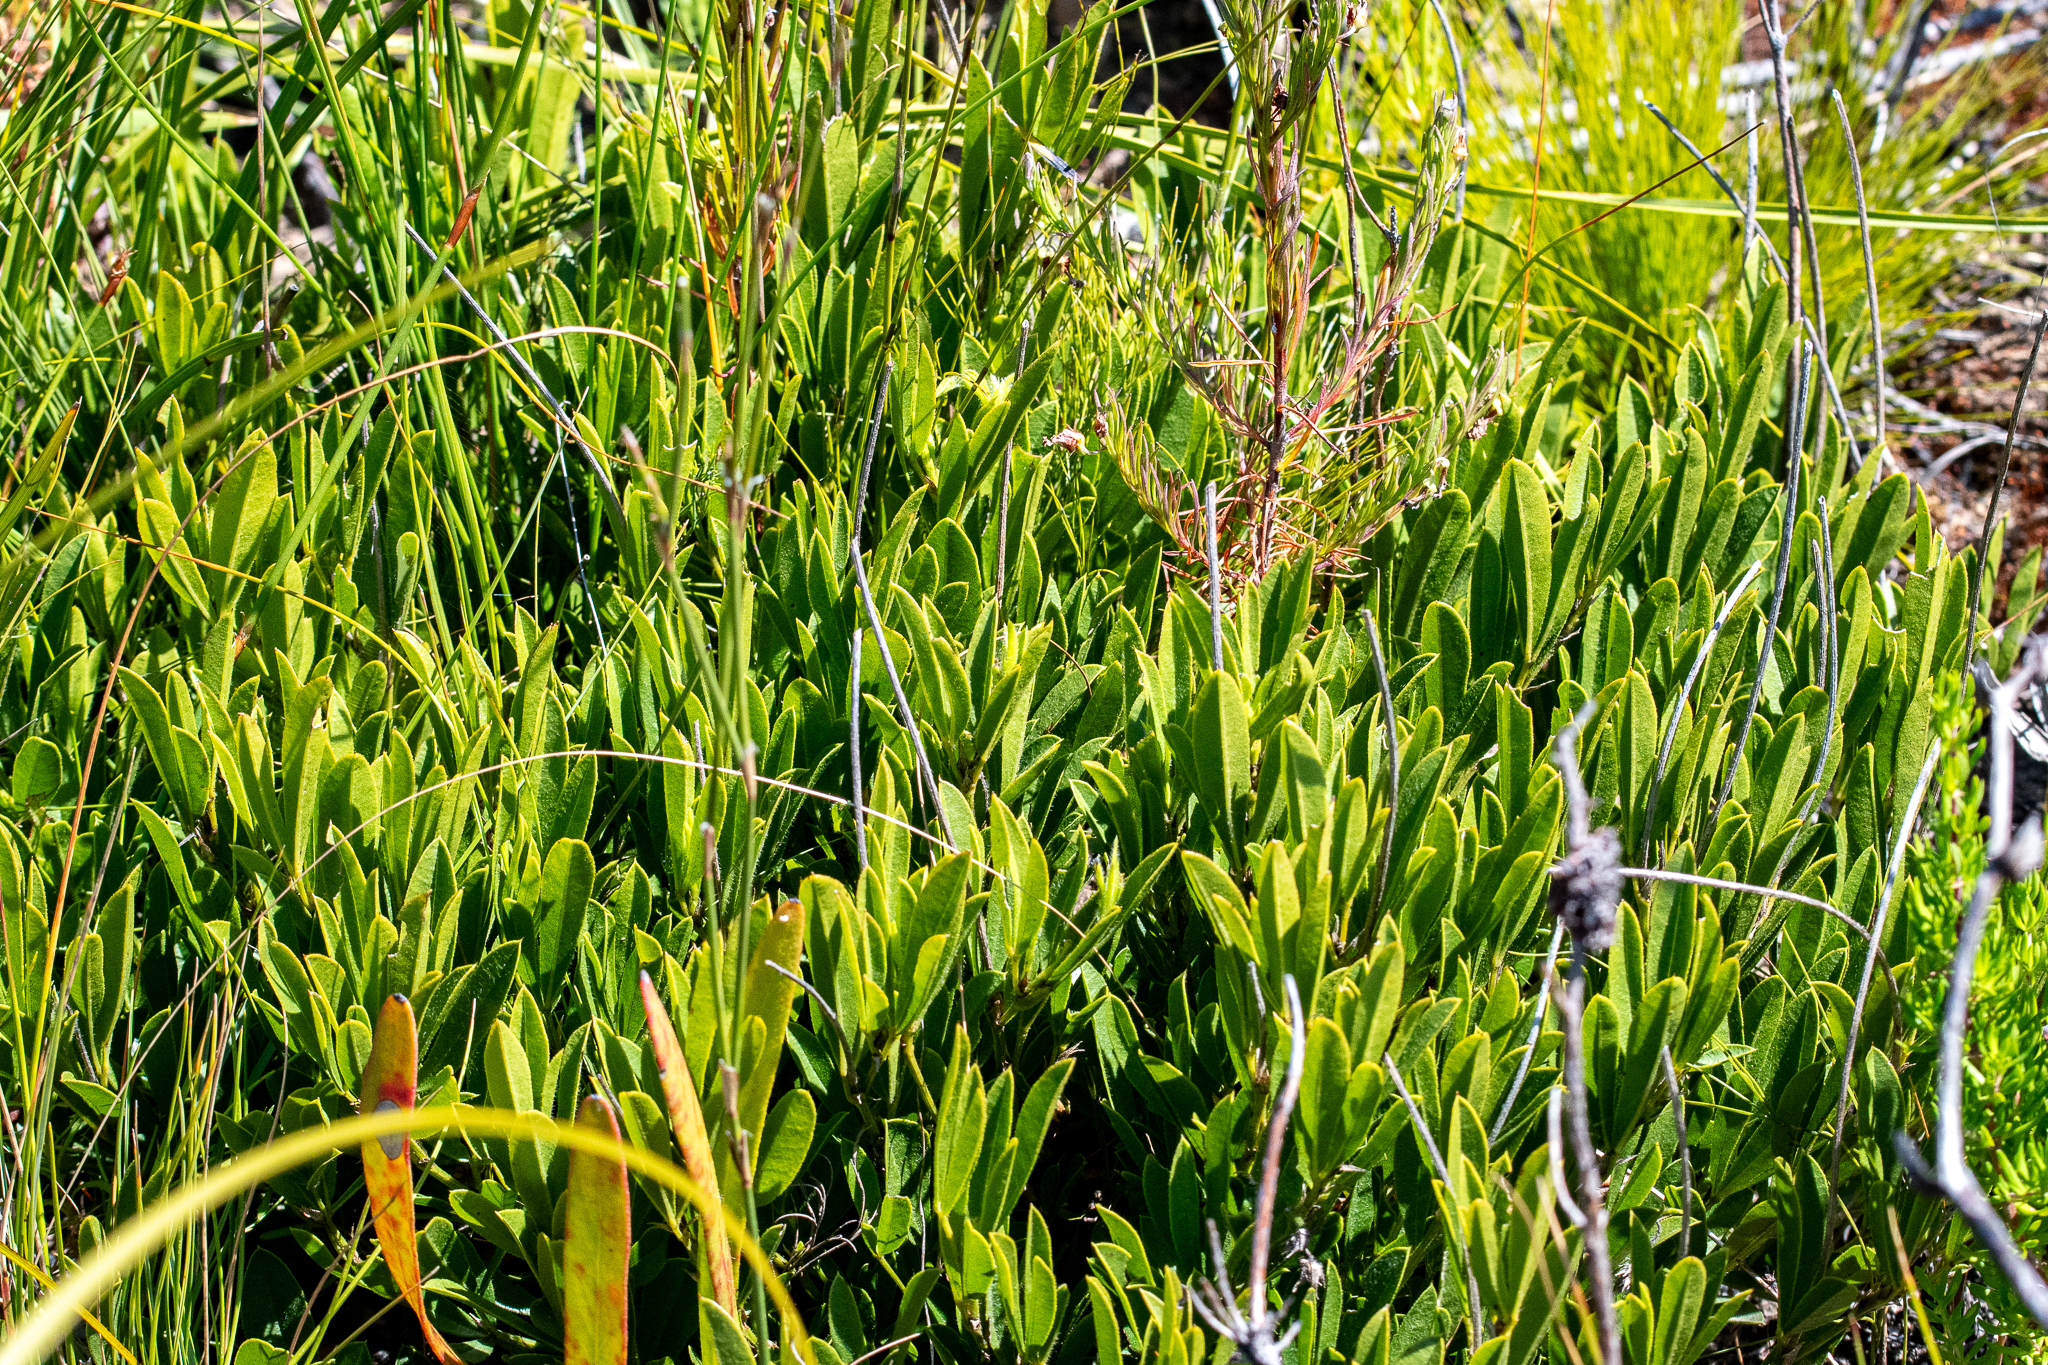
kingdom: Plantae
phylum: Tracheophyta
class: Magnoliopsida
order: Fabales
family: Fabaceae
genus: Psoralea
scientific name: Psoralea zeyheri
